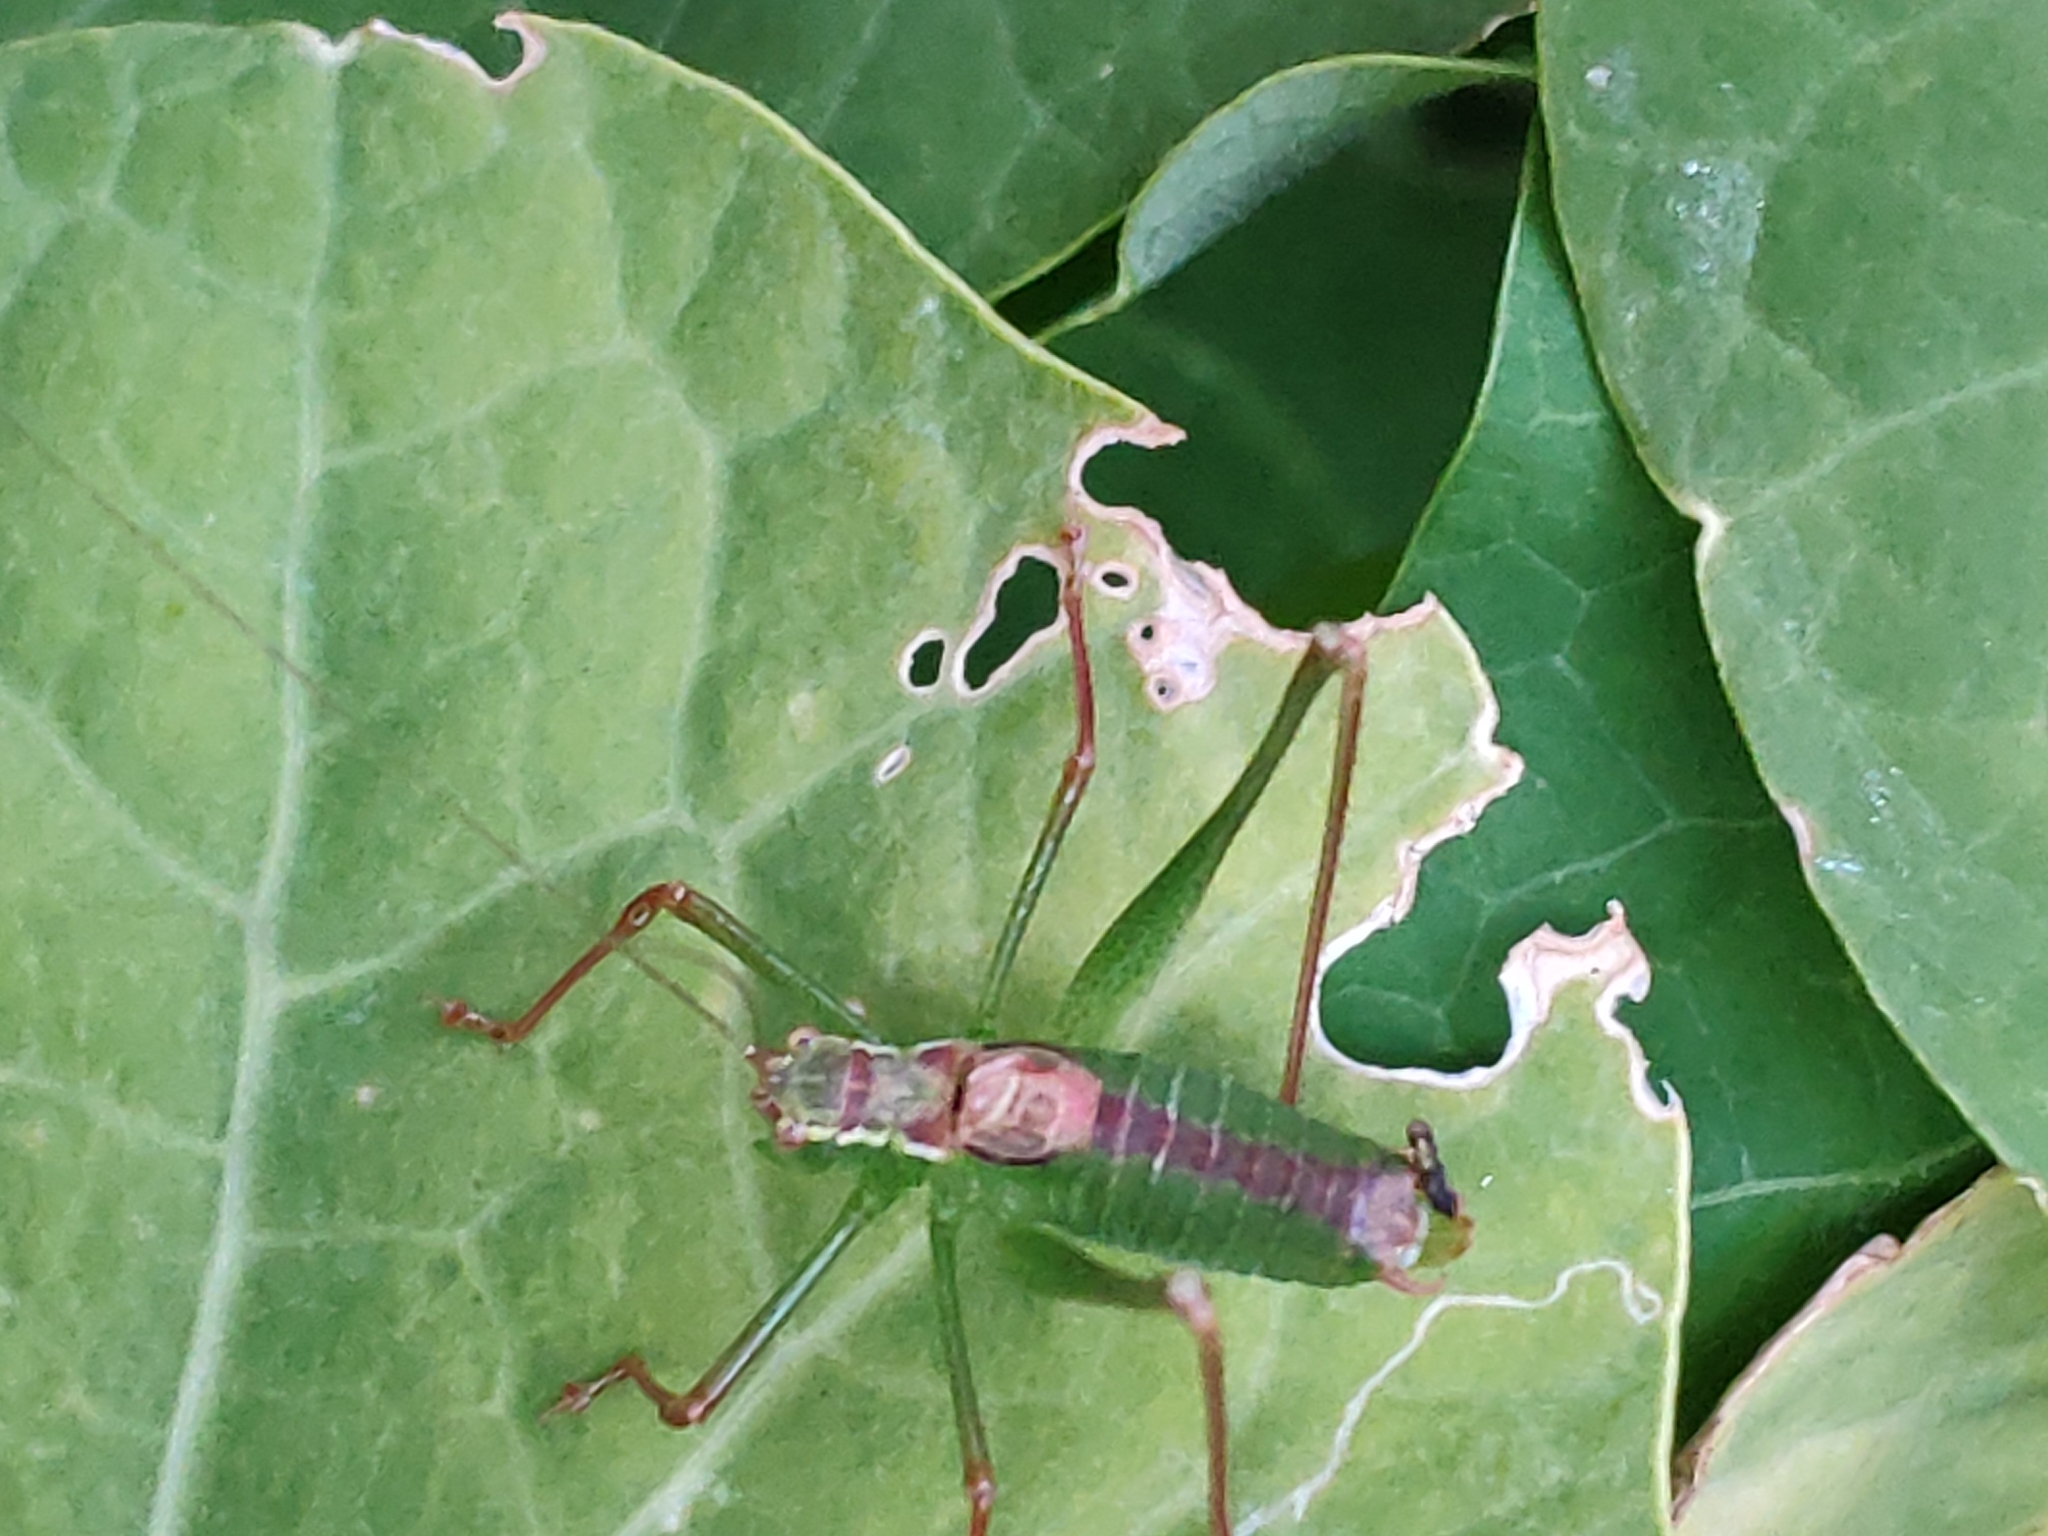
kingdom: Animalia
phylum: Arthropoda
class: Insecta
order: Orthoptera
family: Tettigoniidae
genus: Leptophyes
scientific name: Leptophyes punctatissima
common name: Speckled bush-cricket
